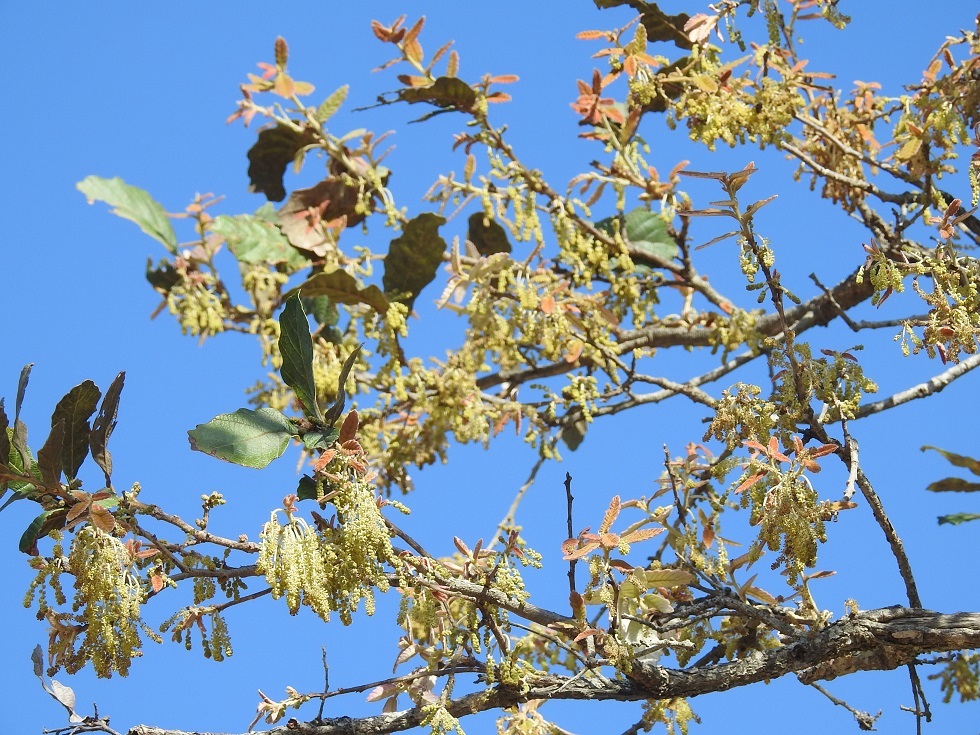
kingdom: Plantae
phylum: Tracheophyta
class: Magnoliopsida
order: Fagales
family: Fagaceae
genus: Quercus
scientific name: Quercus peduncularis
